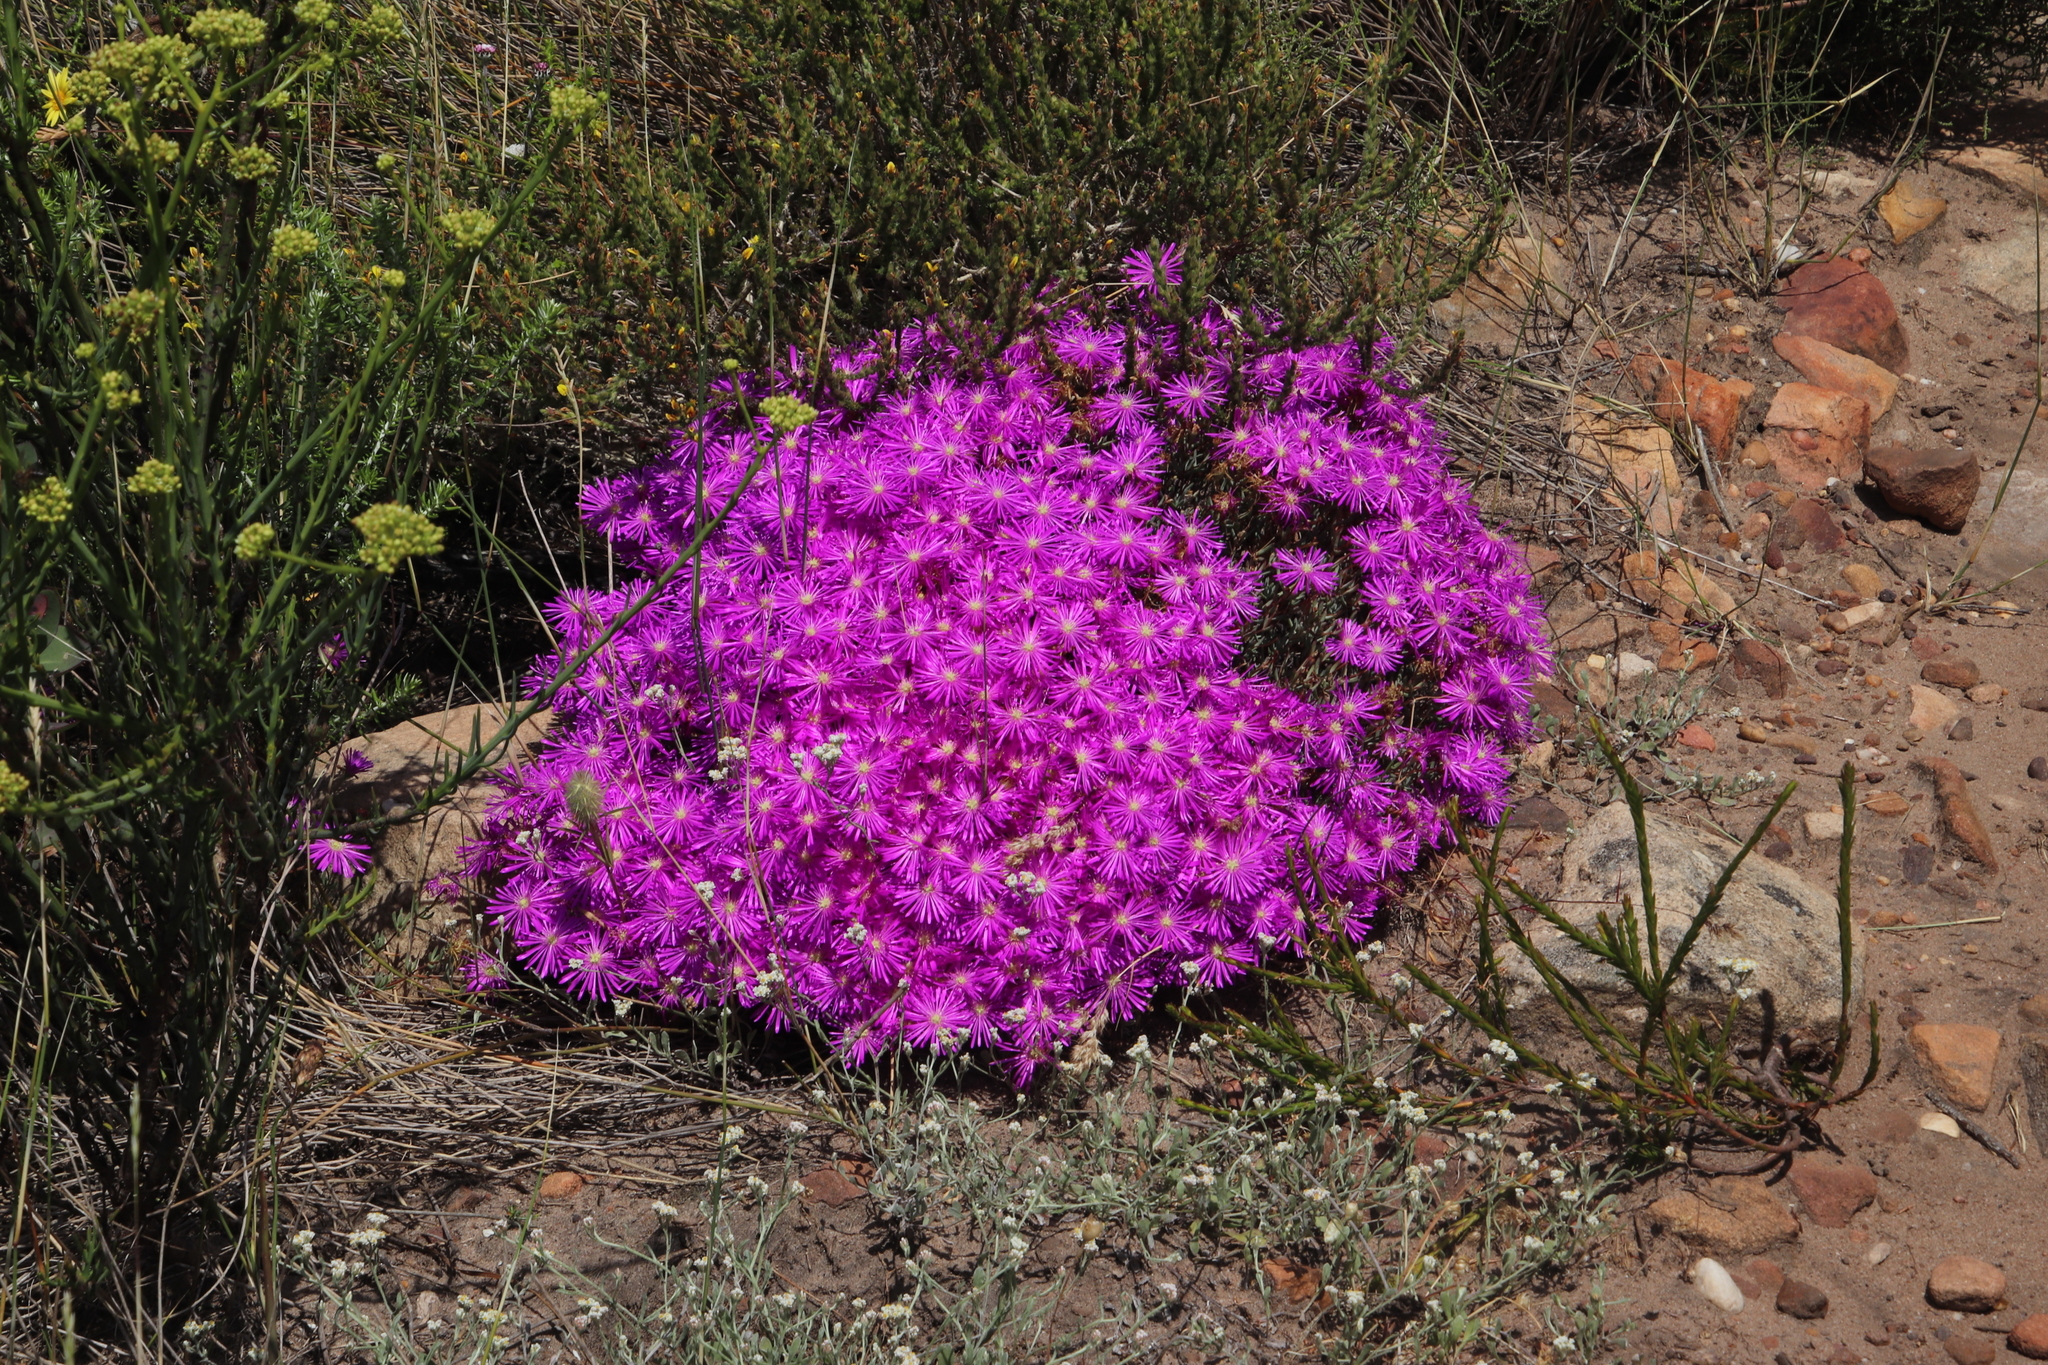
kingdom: Plantae
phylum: Tracheophyta
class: Magnoliopsida
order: Caryophyllales
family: Aizoaceae
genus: Lampranthus
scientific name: Lampranthus emarginatus
